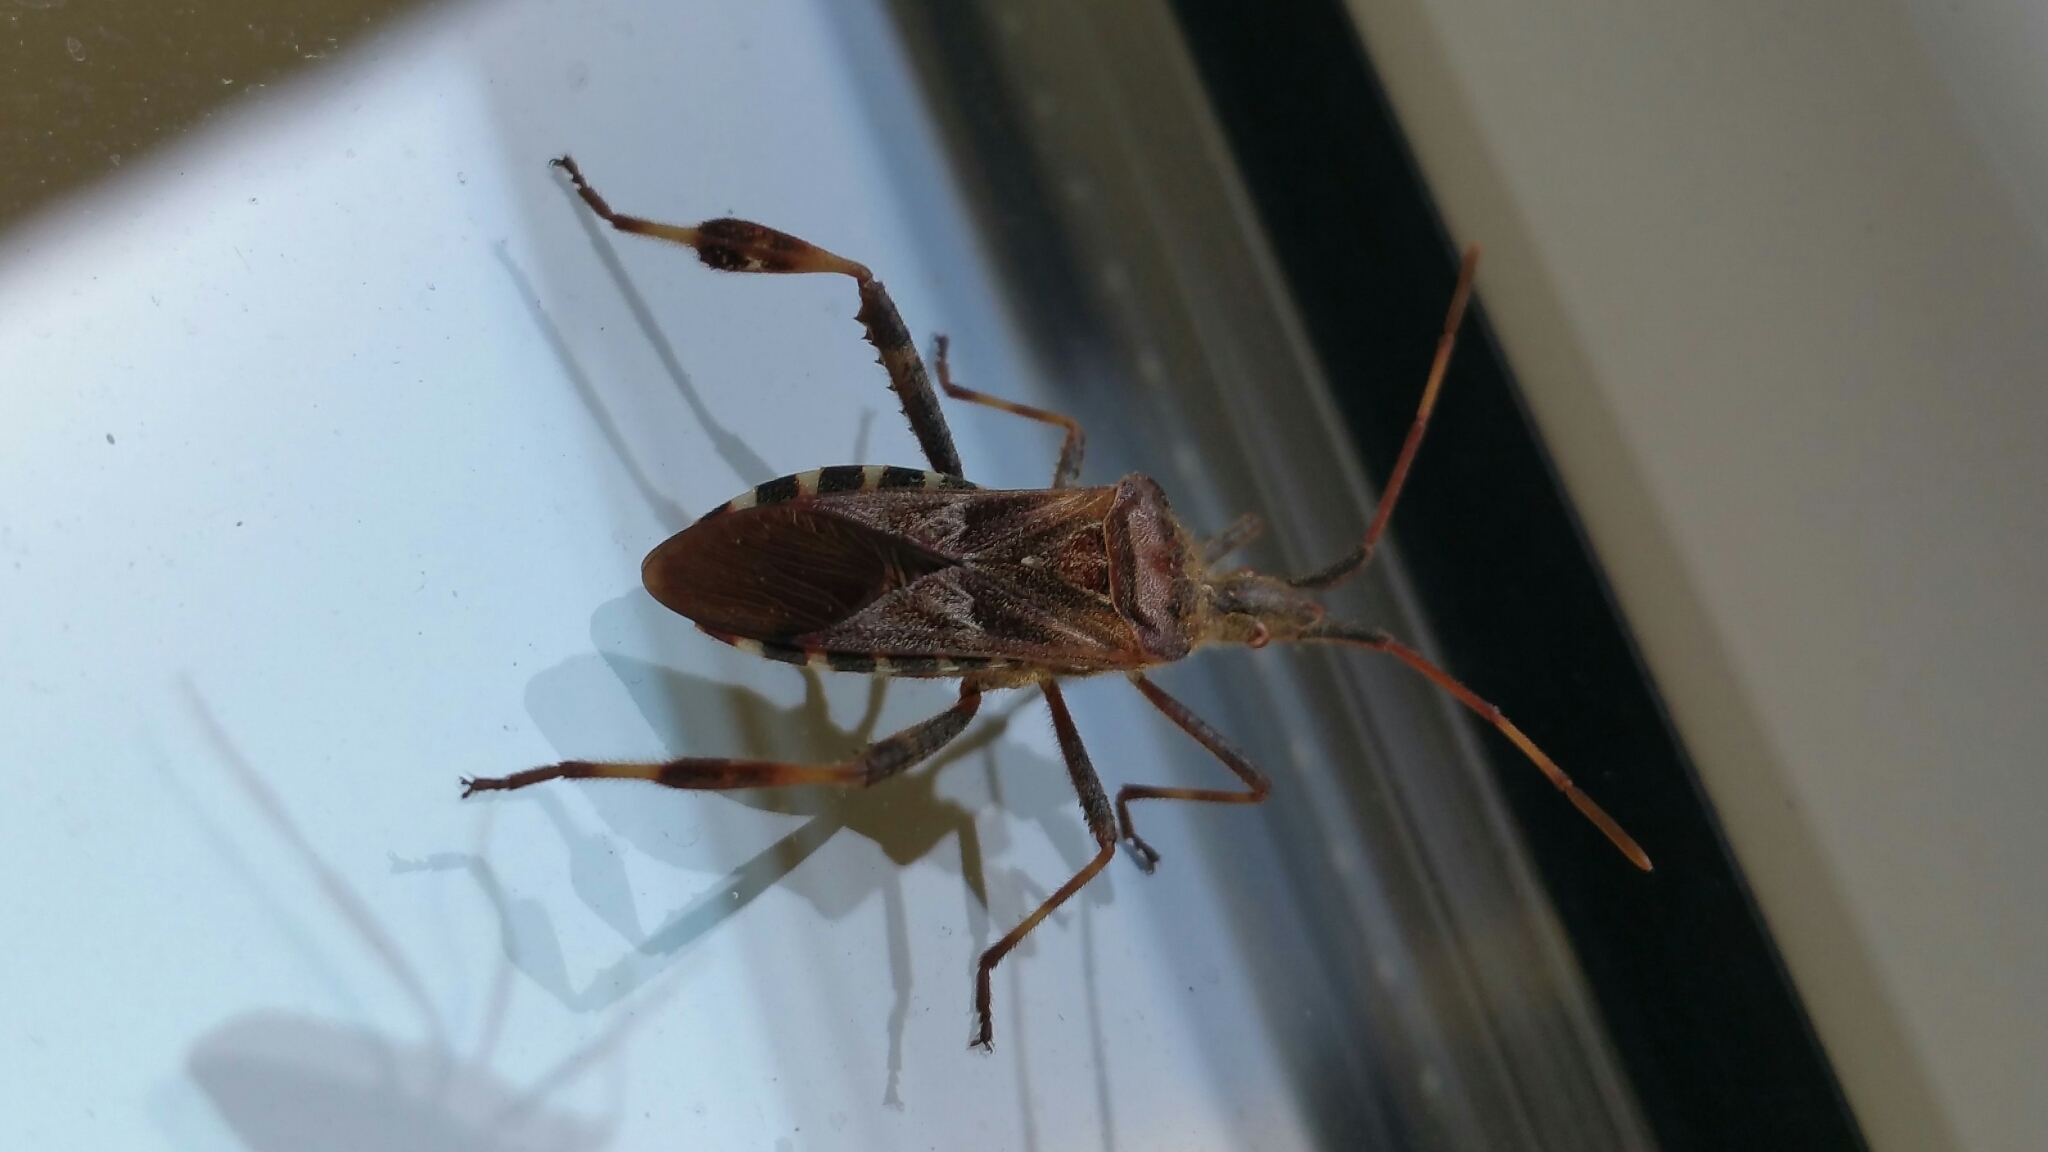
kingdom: Animalia
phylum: Arthropoda
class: Insecta
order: Hemiptera
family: Coreidae
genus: Leptoglossus
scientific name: Leptoglossus occidentalis
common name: Western conifer-seed bug
